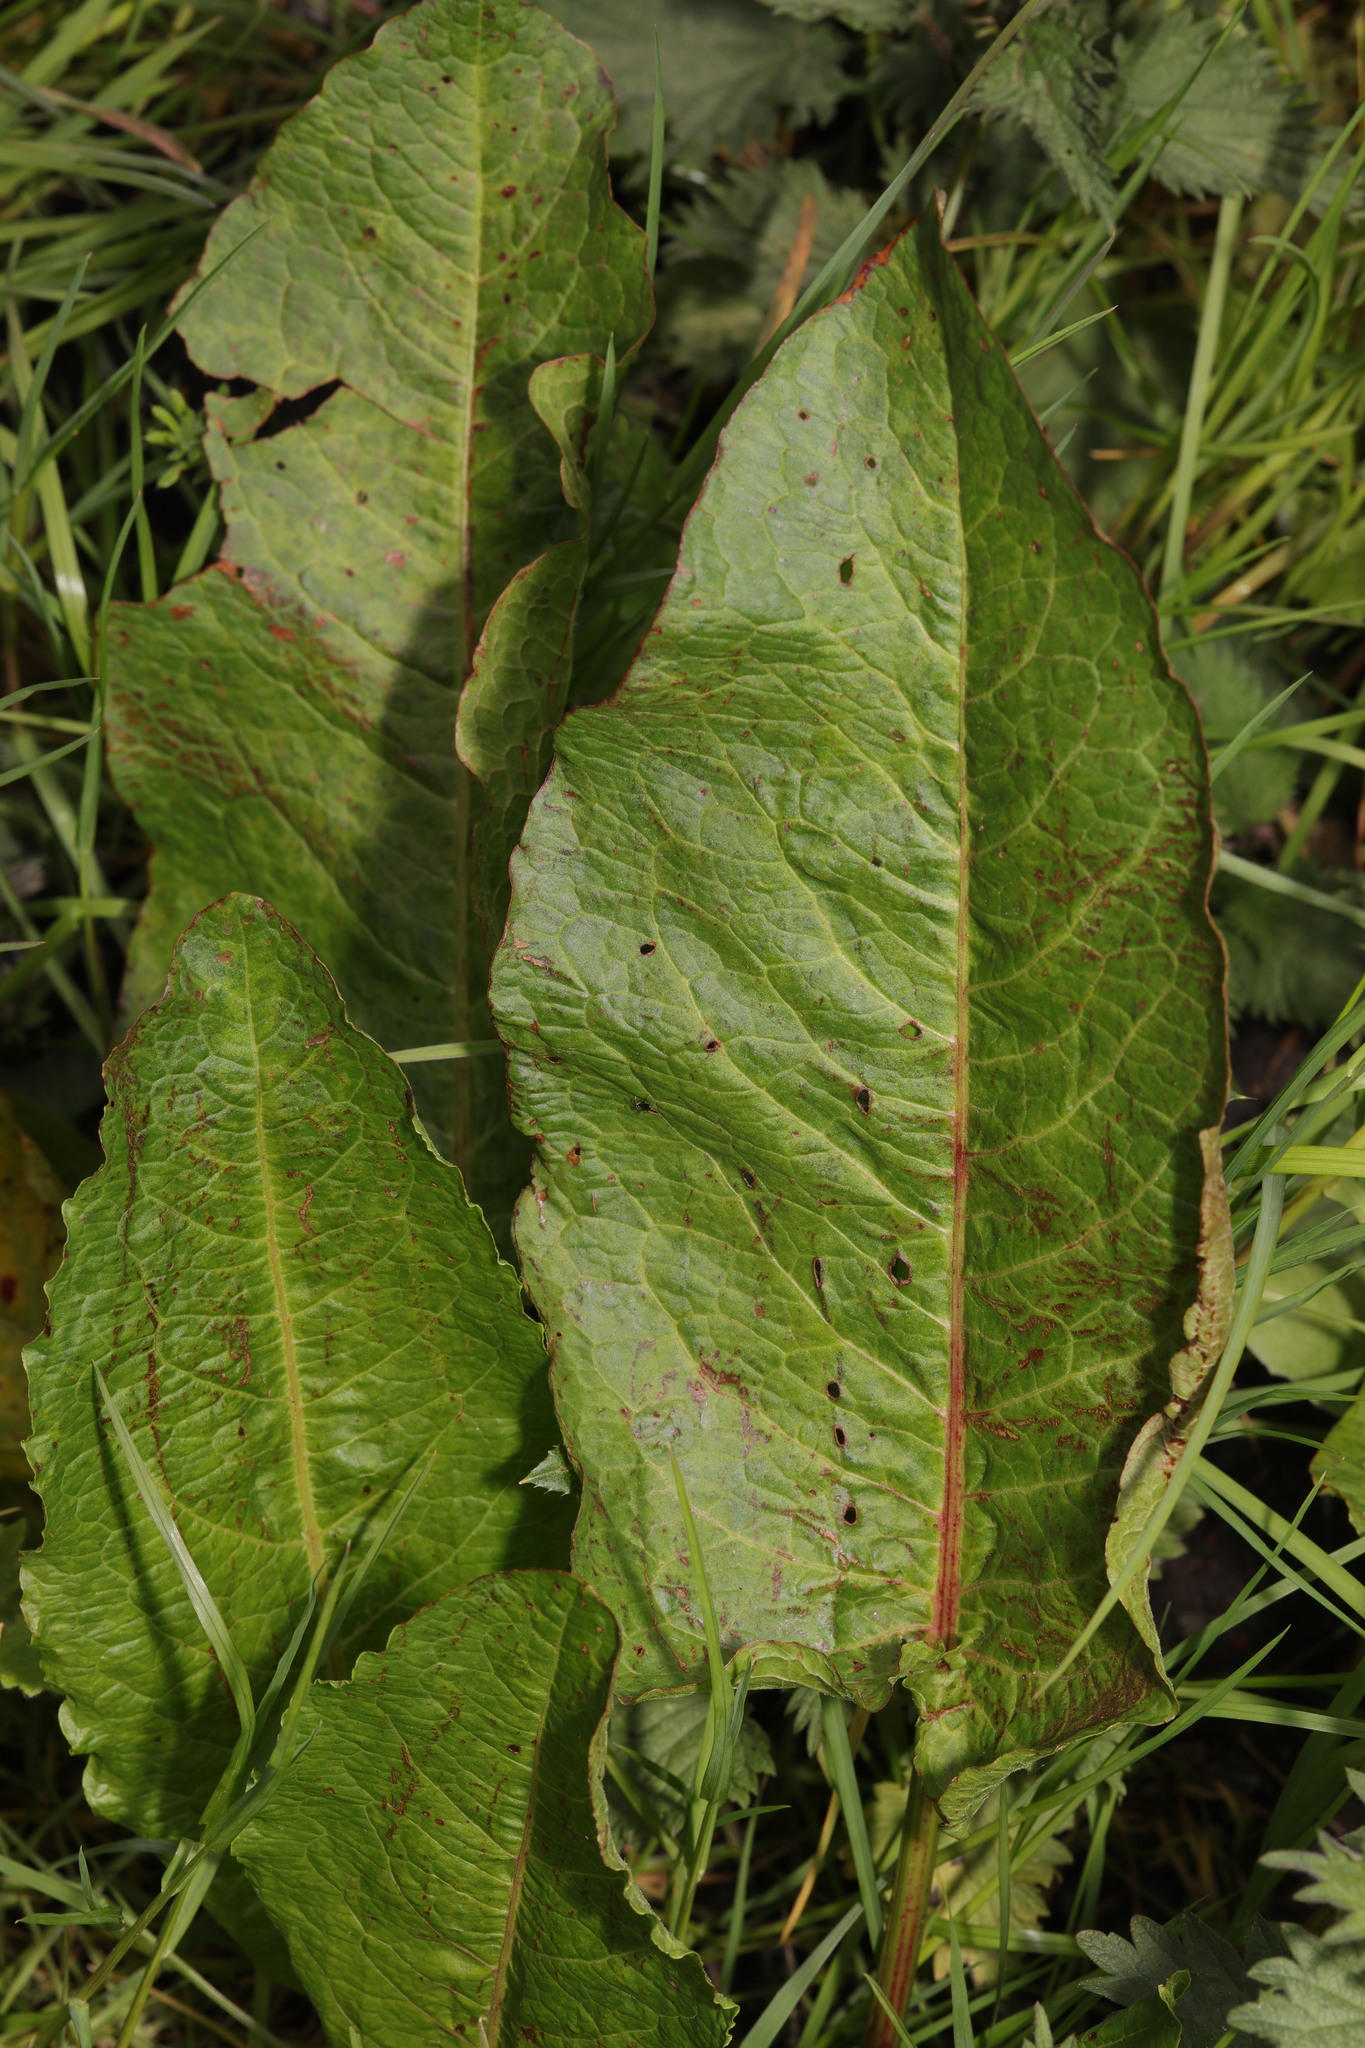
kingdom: Plantae
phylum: Tracheophyta
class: Magnoliopsida
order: Caryophyllales
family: Polygonaceae
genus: Rumex
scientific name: Rumex obtusifolius
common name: Bitter dock
